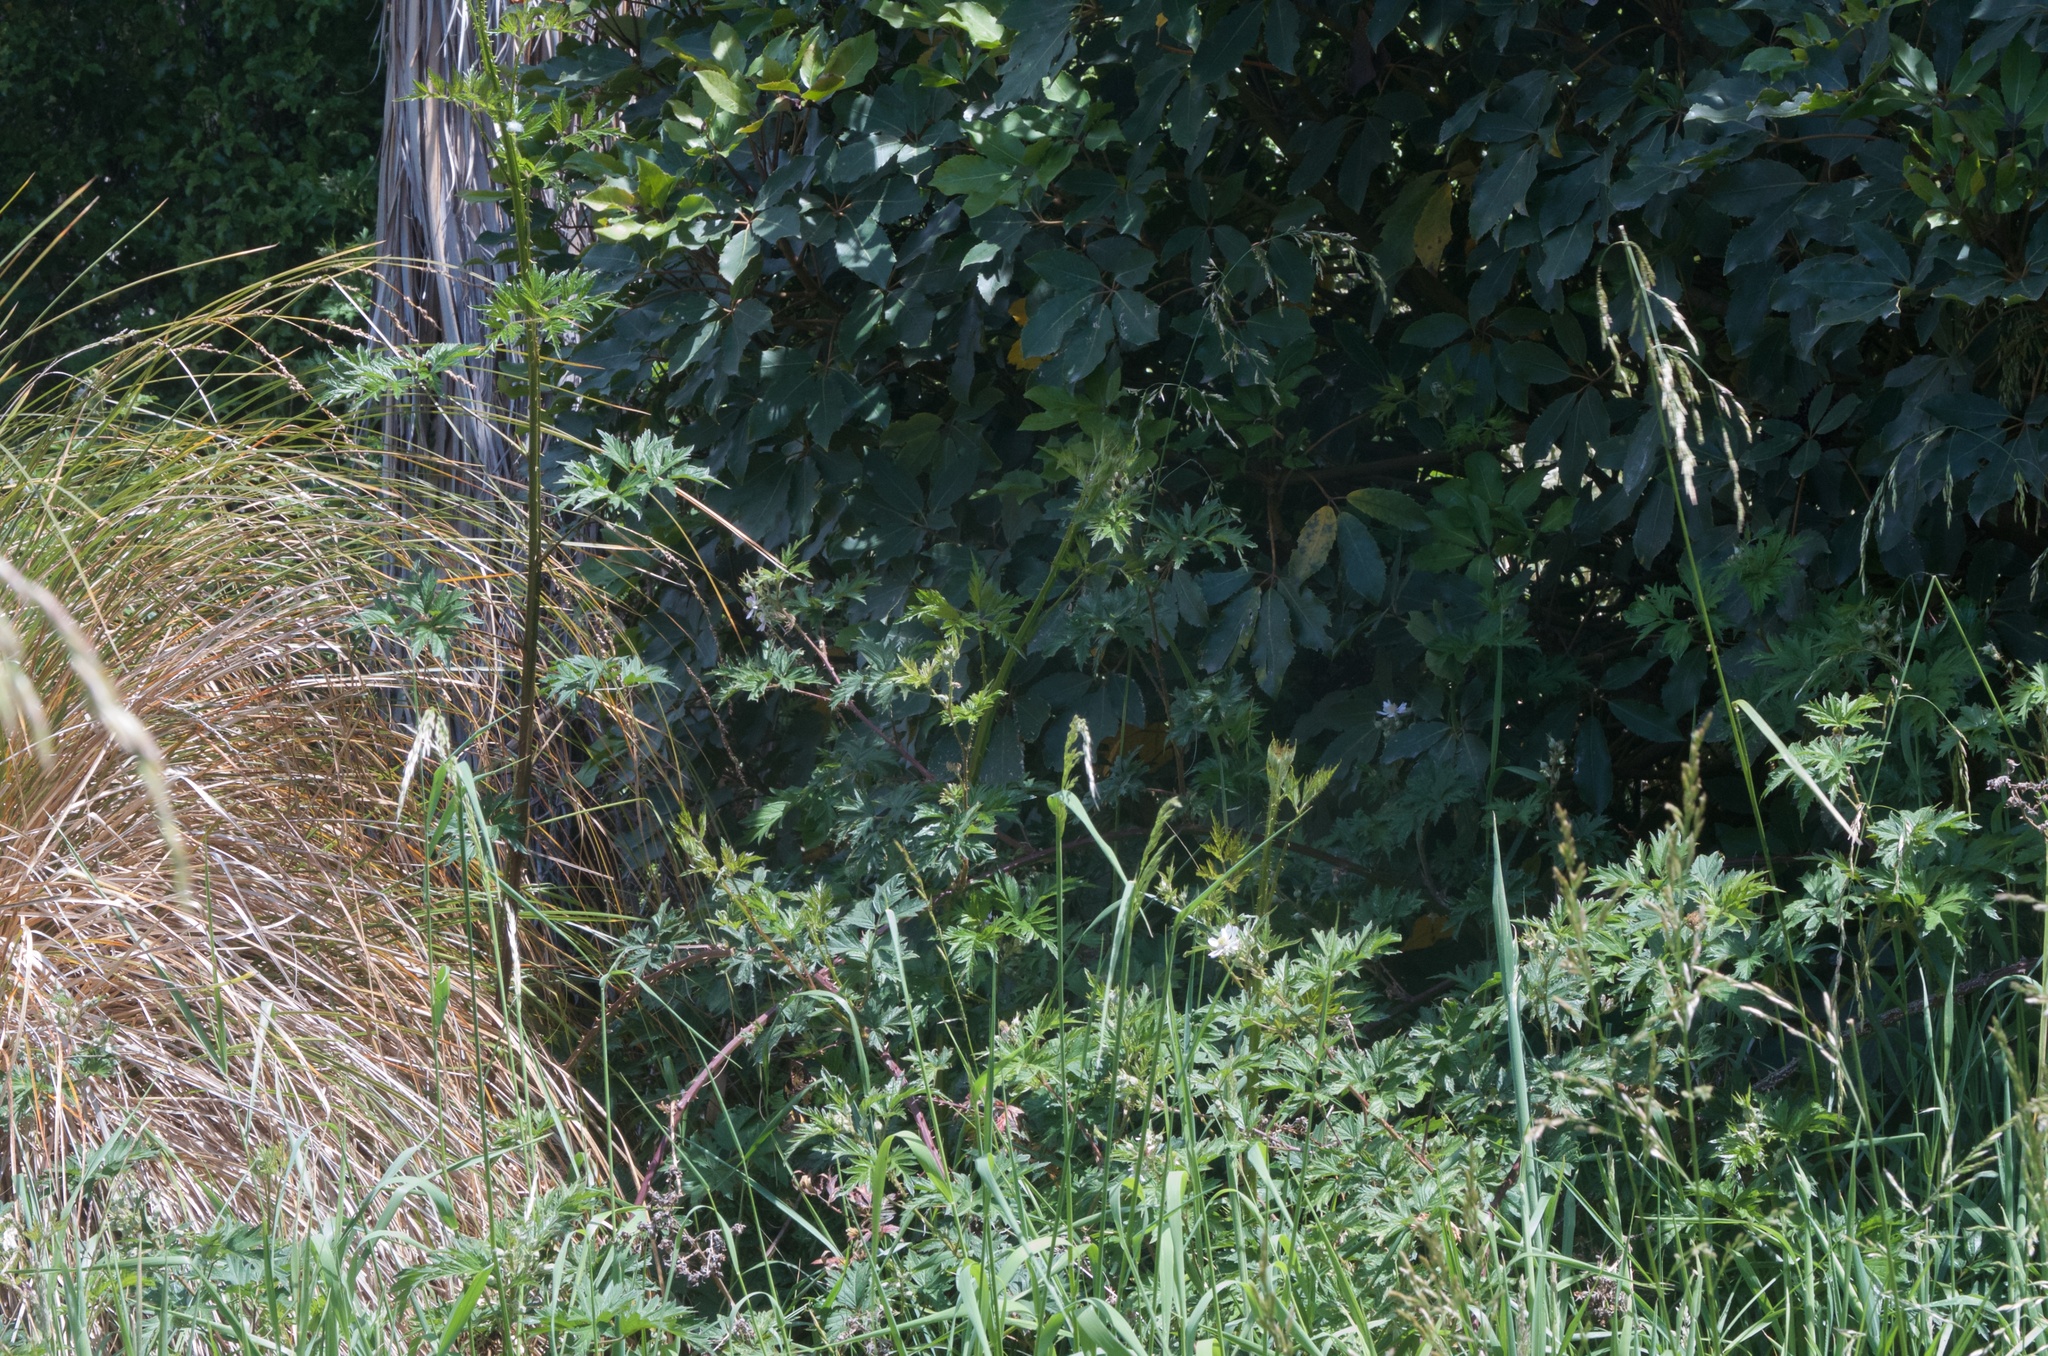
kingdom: Plantae
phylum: Tracheophyta
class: Magnoliopsida
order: Rosales
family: Rosaceae
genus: Rubus
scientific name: Rubus laciniatus
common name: Evergreen blackberry
